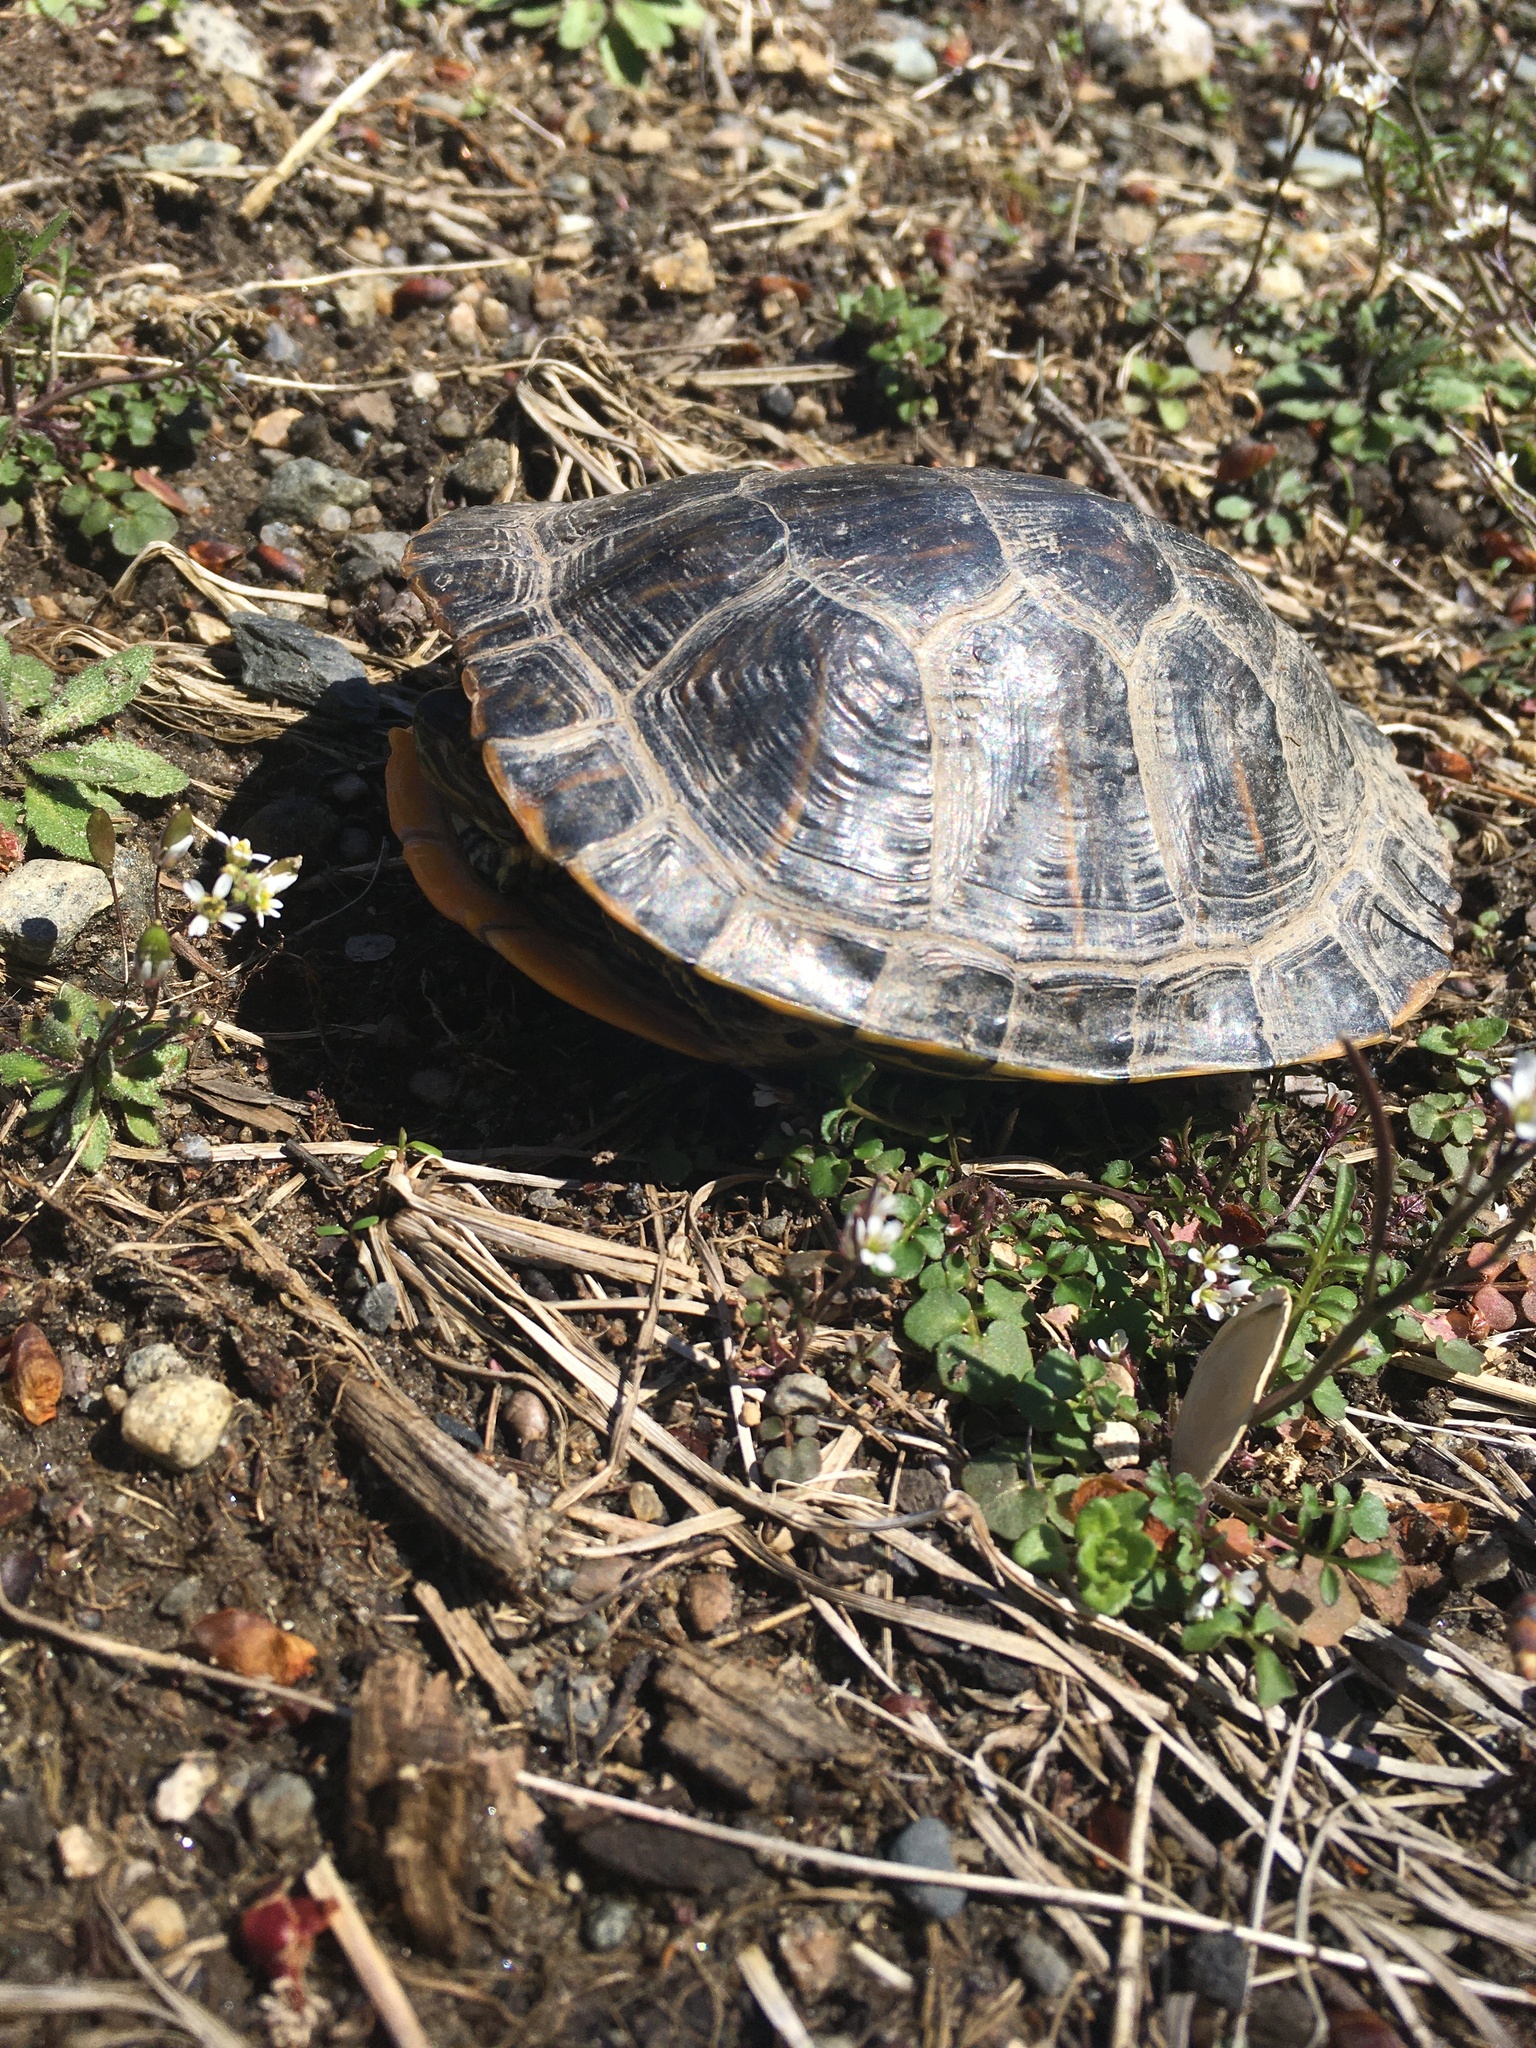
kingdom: Animalia
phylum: Chordata
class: Testudines
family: Emydidae
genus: Trachemys
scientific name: Trachemys scripta
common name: Slider
